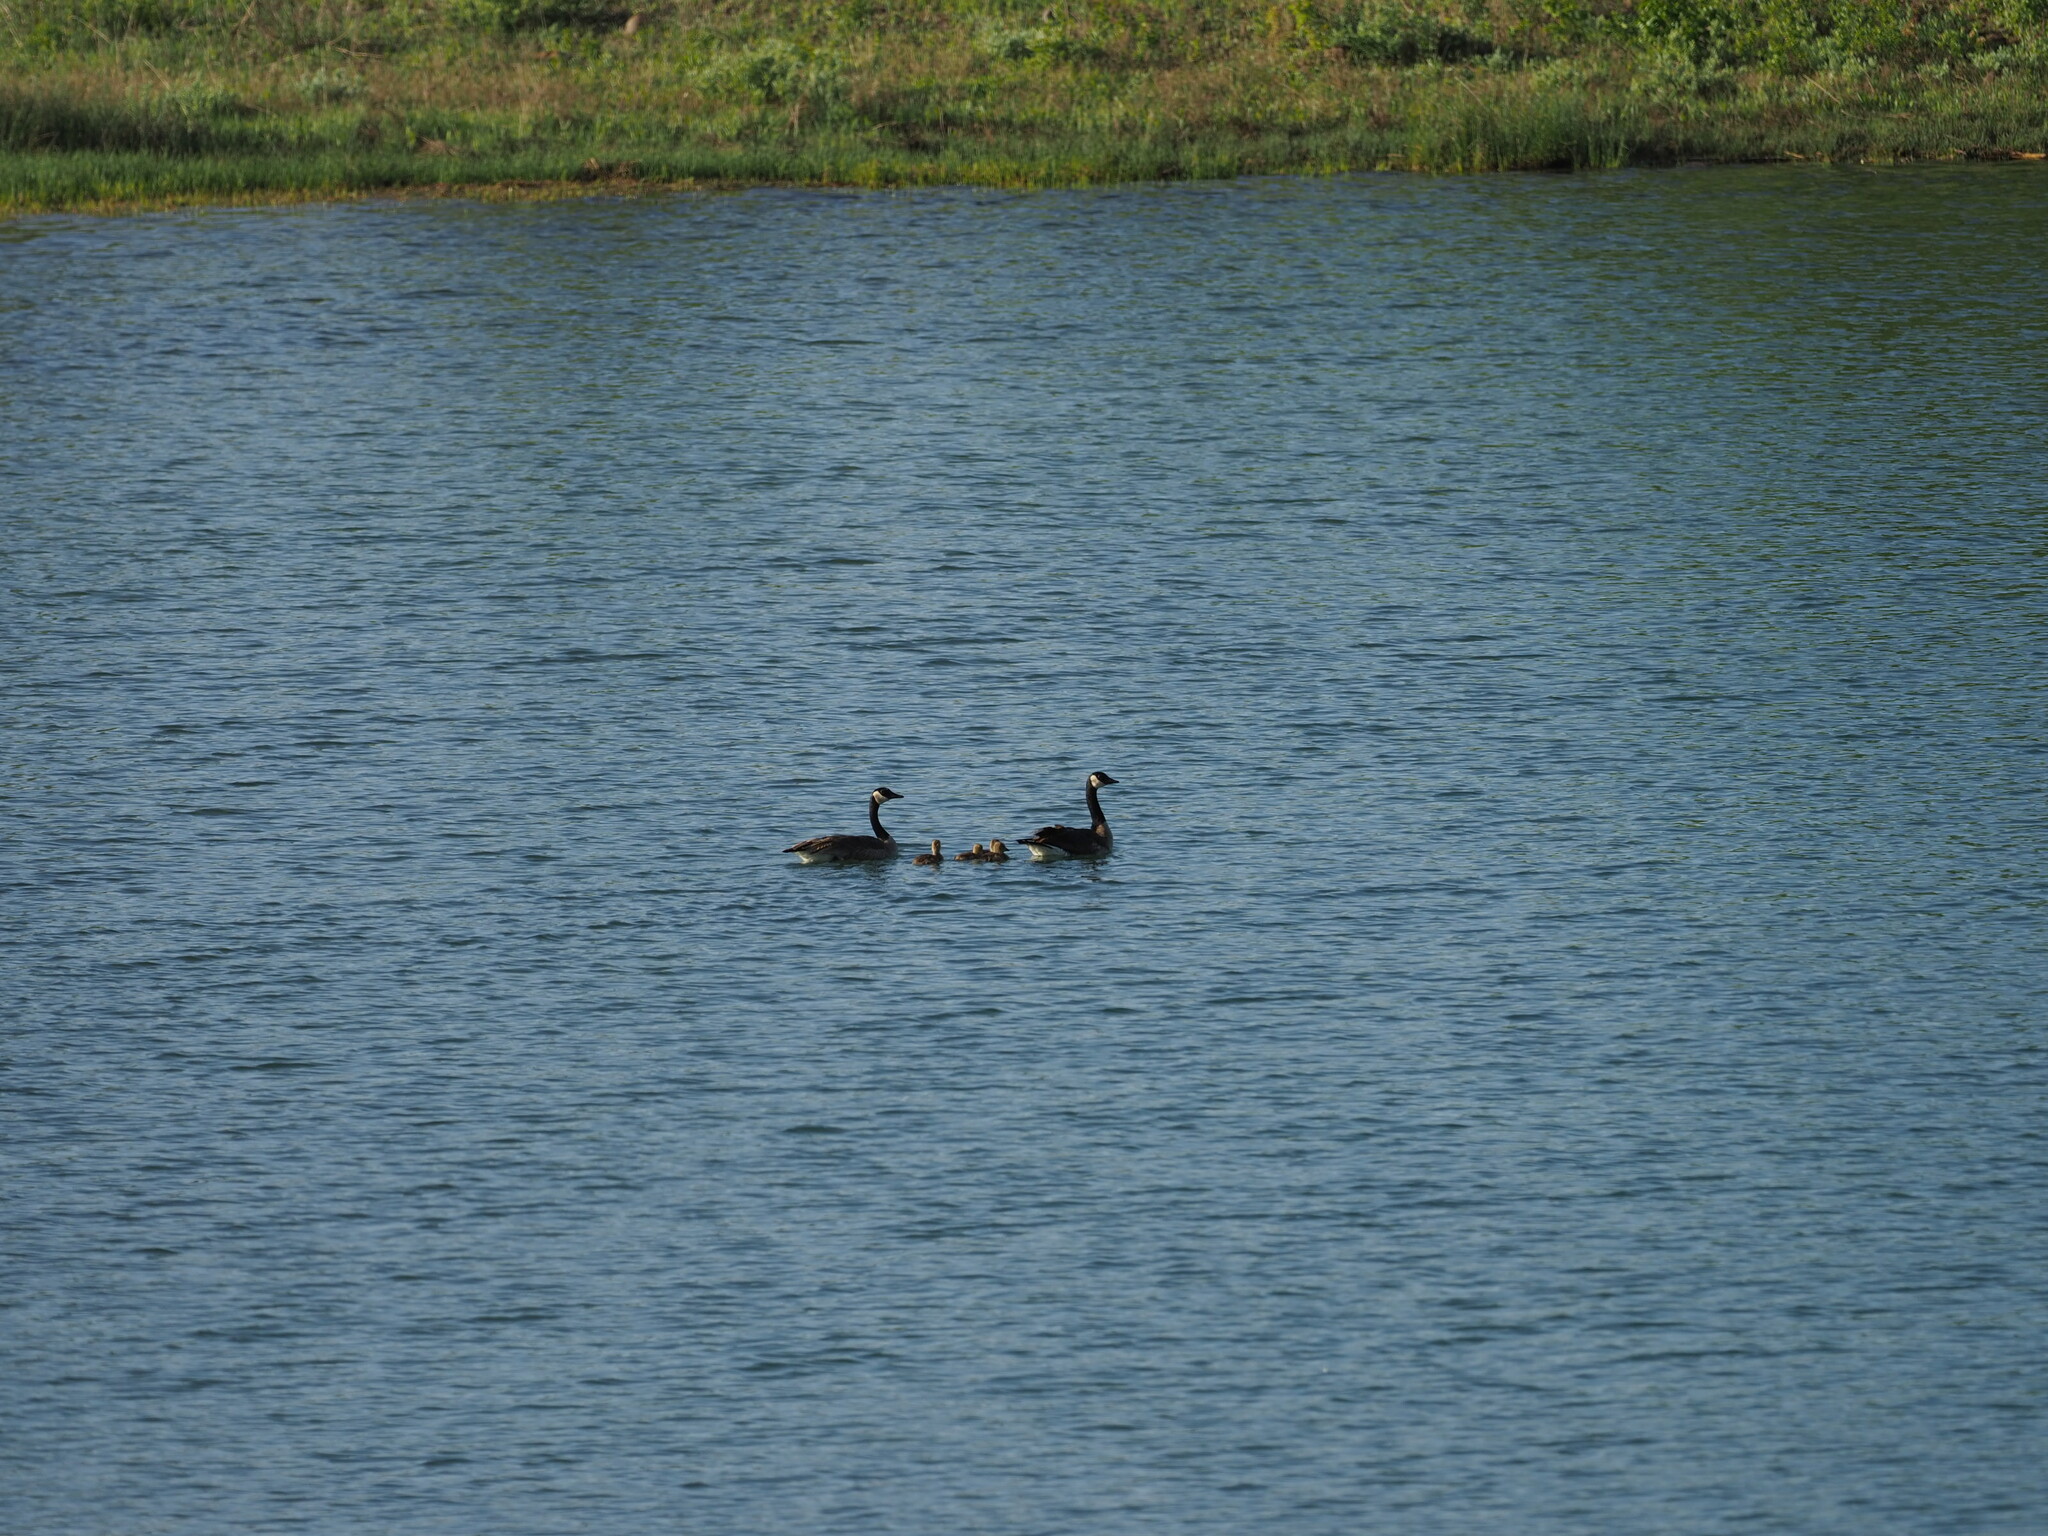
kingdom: Animalia
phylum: Chordata
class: Aves
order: Anseriformes
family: Anatidae
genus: Branta
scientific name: Branta canadensis
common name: Canada goose
